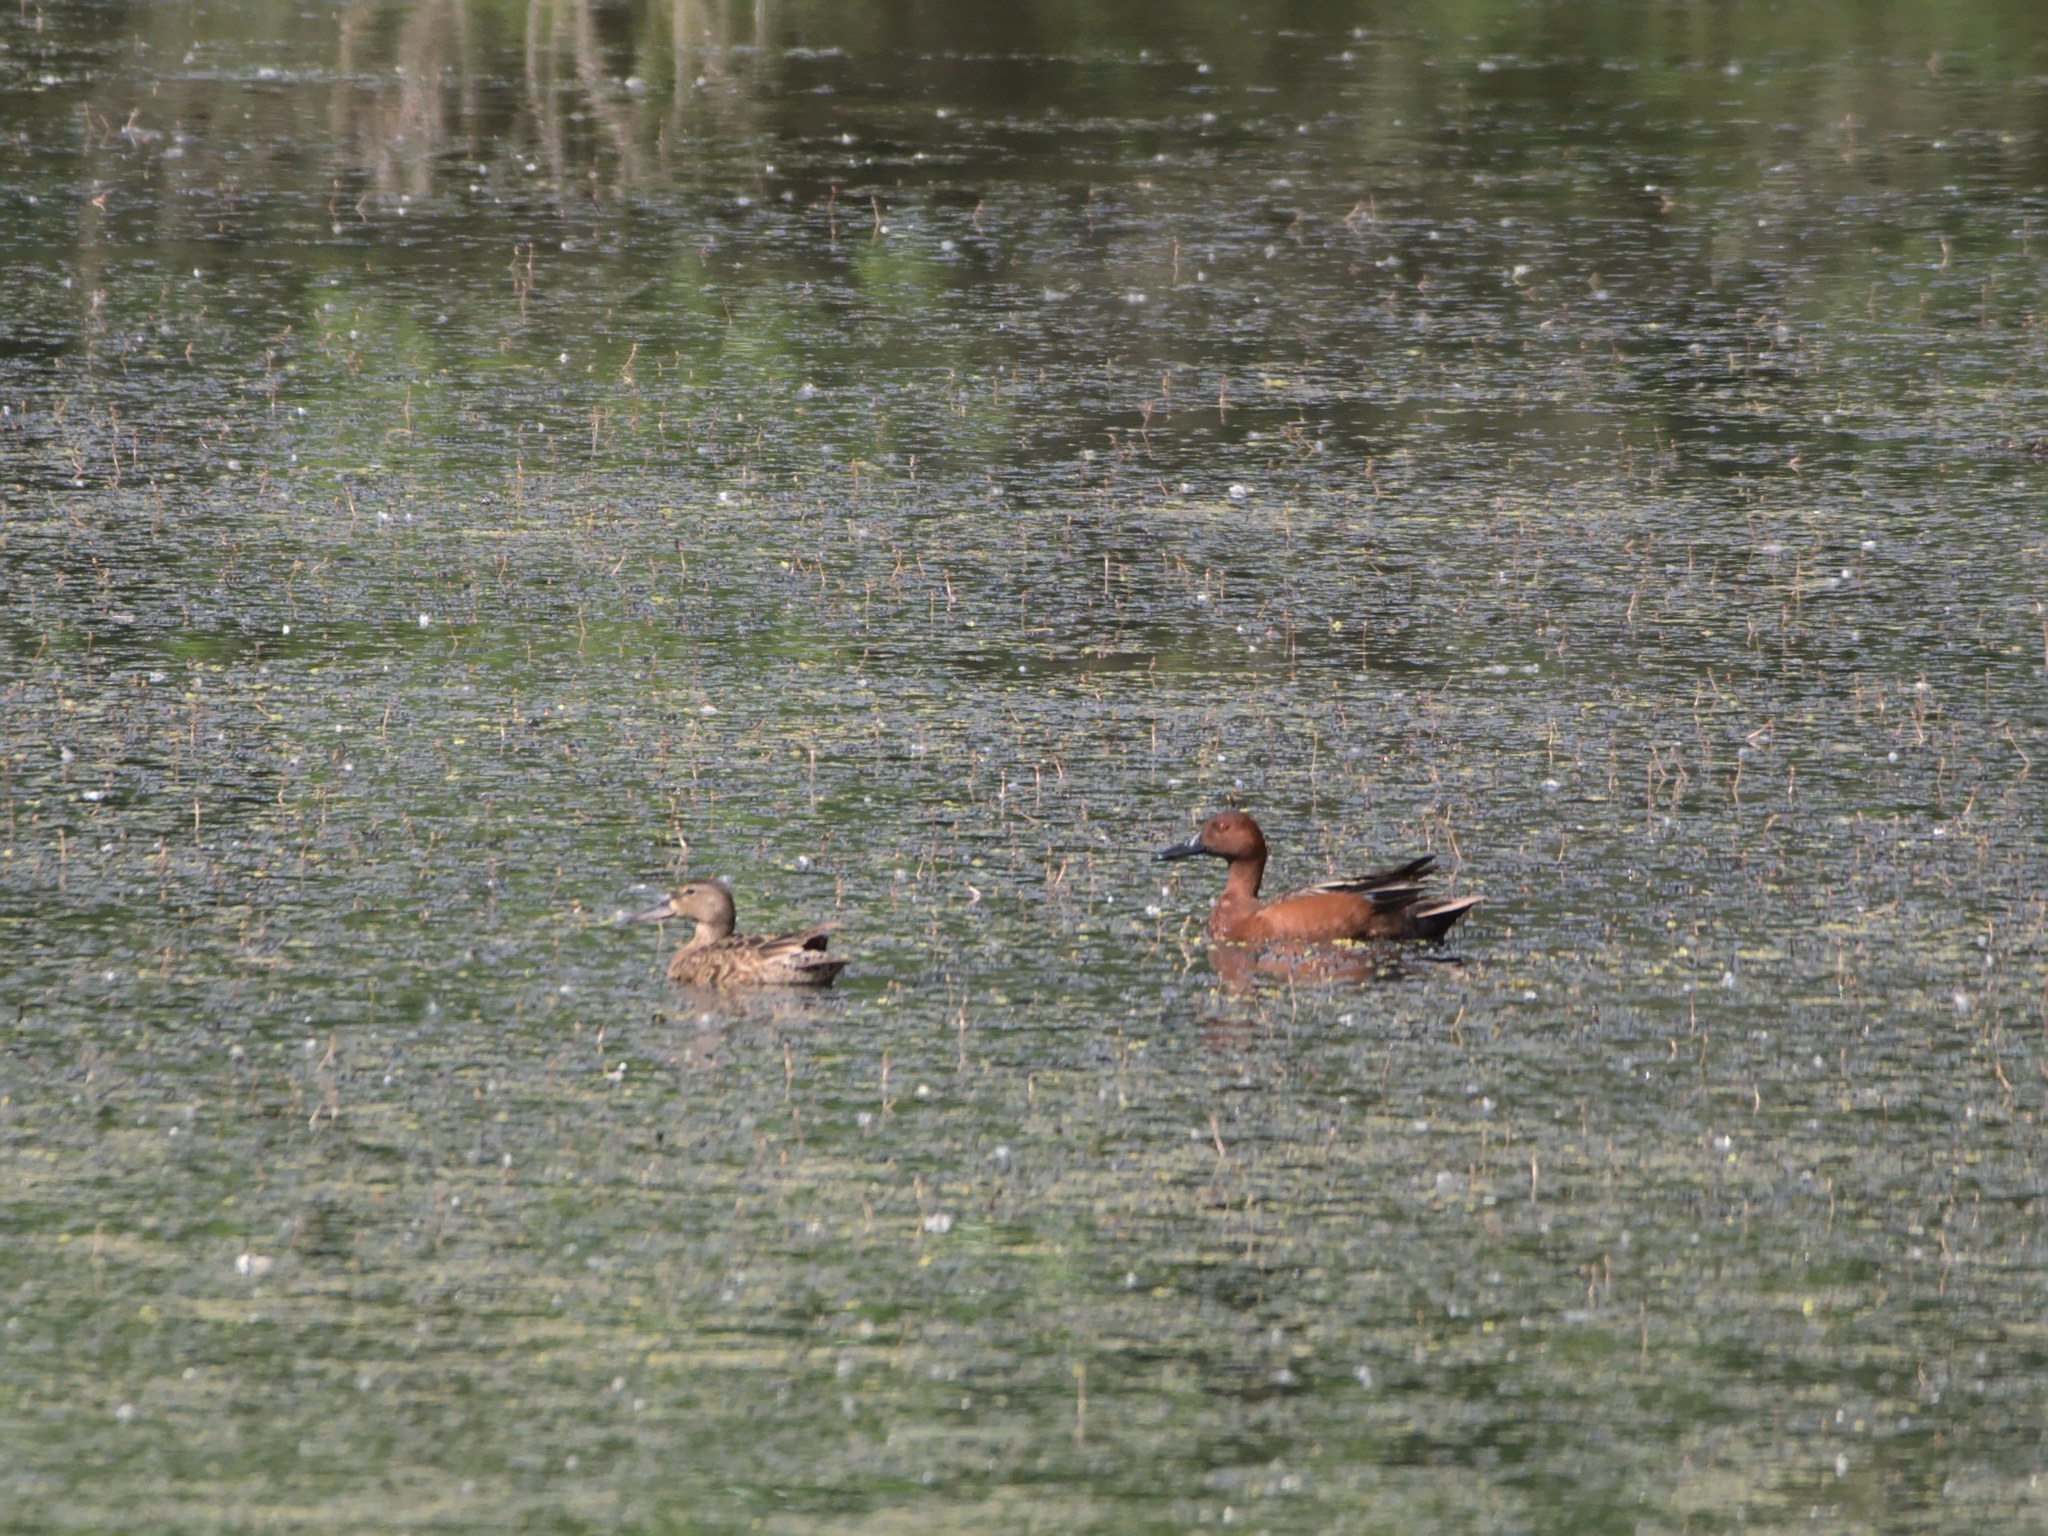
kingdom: Animalia
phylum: Chordata
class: Aves
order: Anseriformes
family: Anatidae
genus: Spatula
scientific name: Spatula cyanoptera
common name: Cinnamon teal
